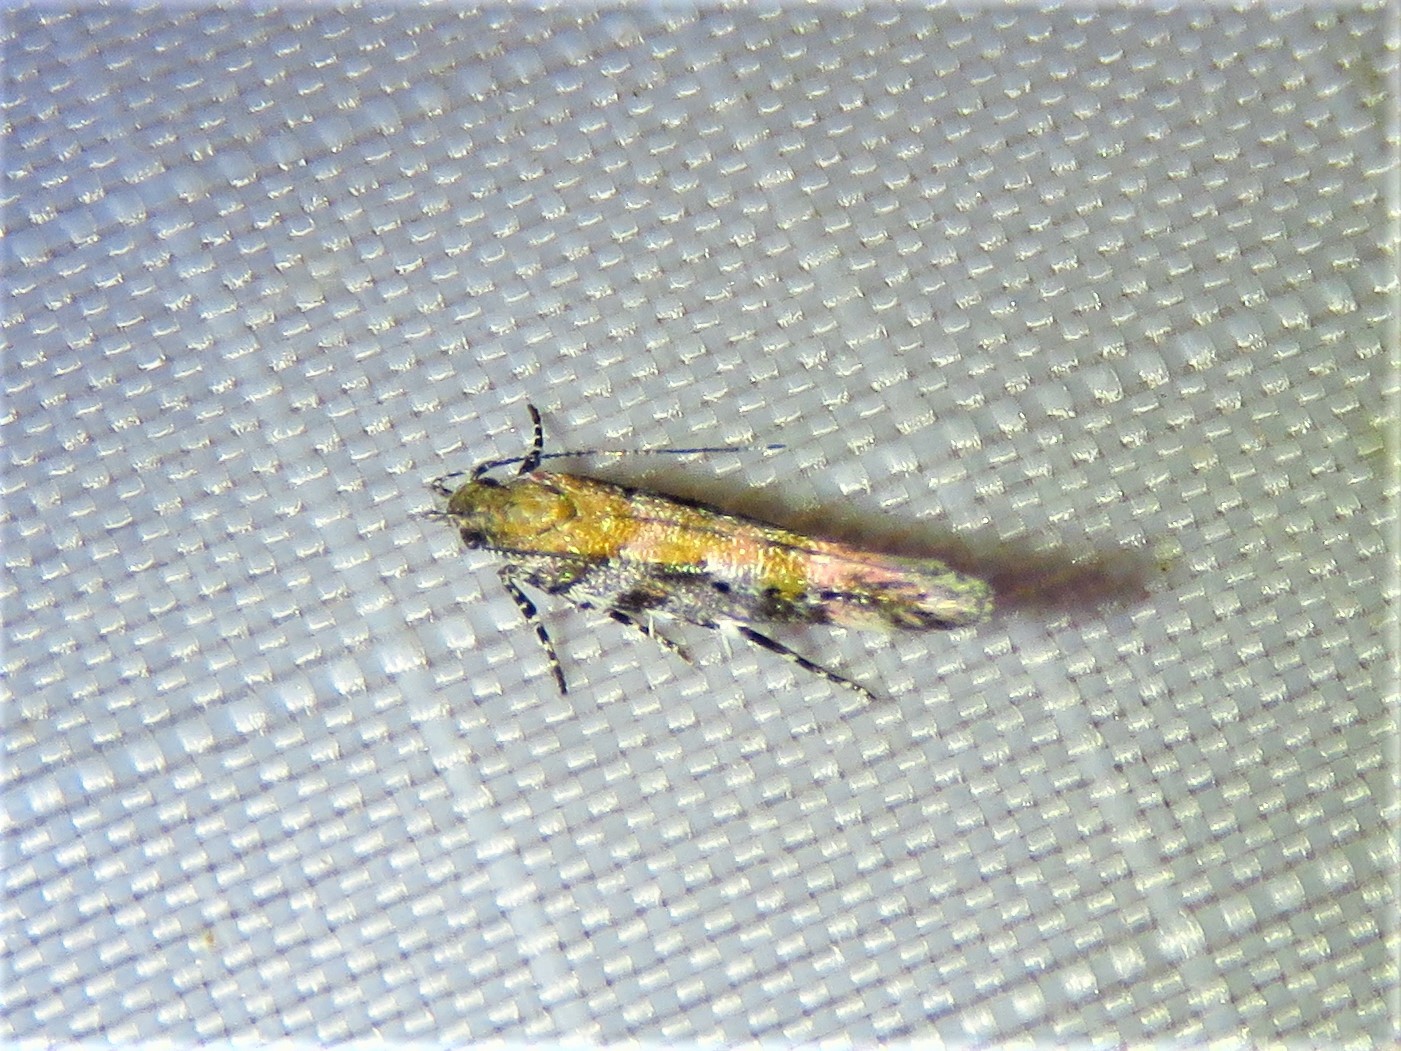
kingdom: Animalia
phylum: Arthropoda
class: Insecta
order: Lepidoptera
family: Gelechiidae
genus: Aristotelia
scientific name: Aristotelia roseosuffusella
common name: Pink-washed aristotelia moth
